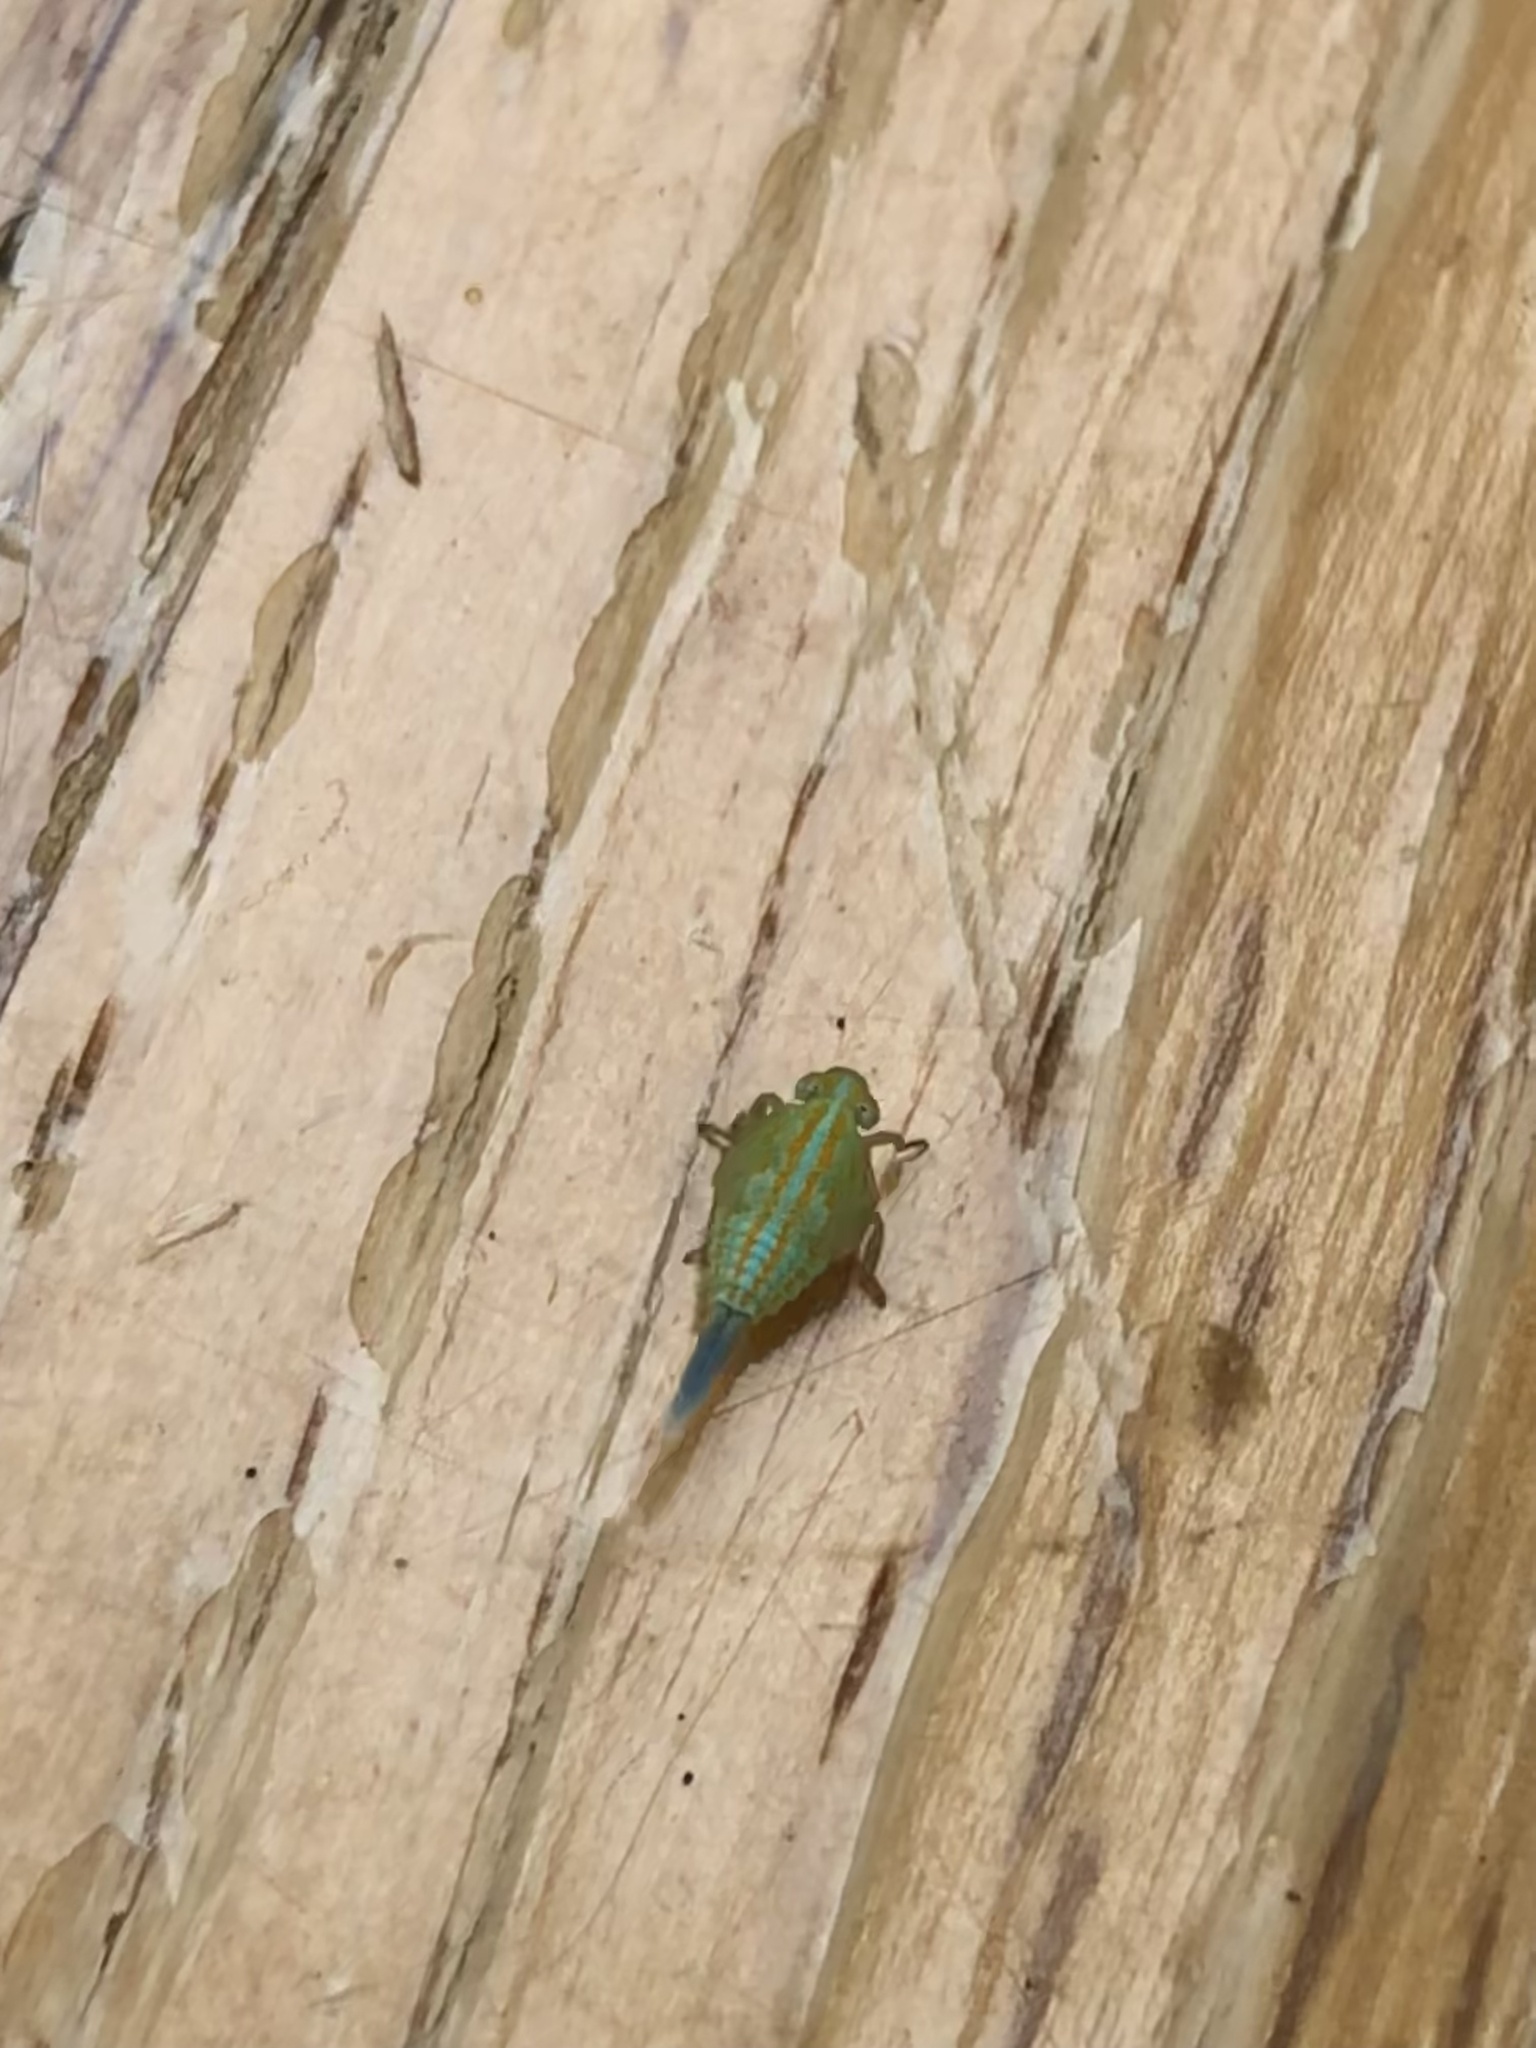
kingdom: Animalia
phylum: Arthropoda
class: Insecta
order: Hemiptera
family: Issidae
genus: Aplos
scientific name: Aplos simplex
